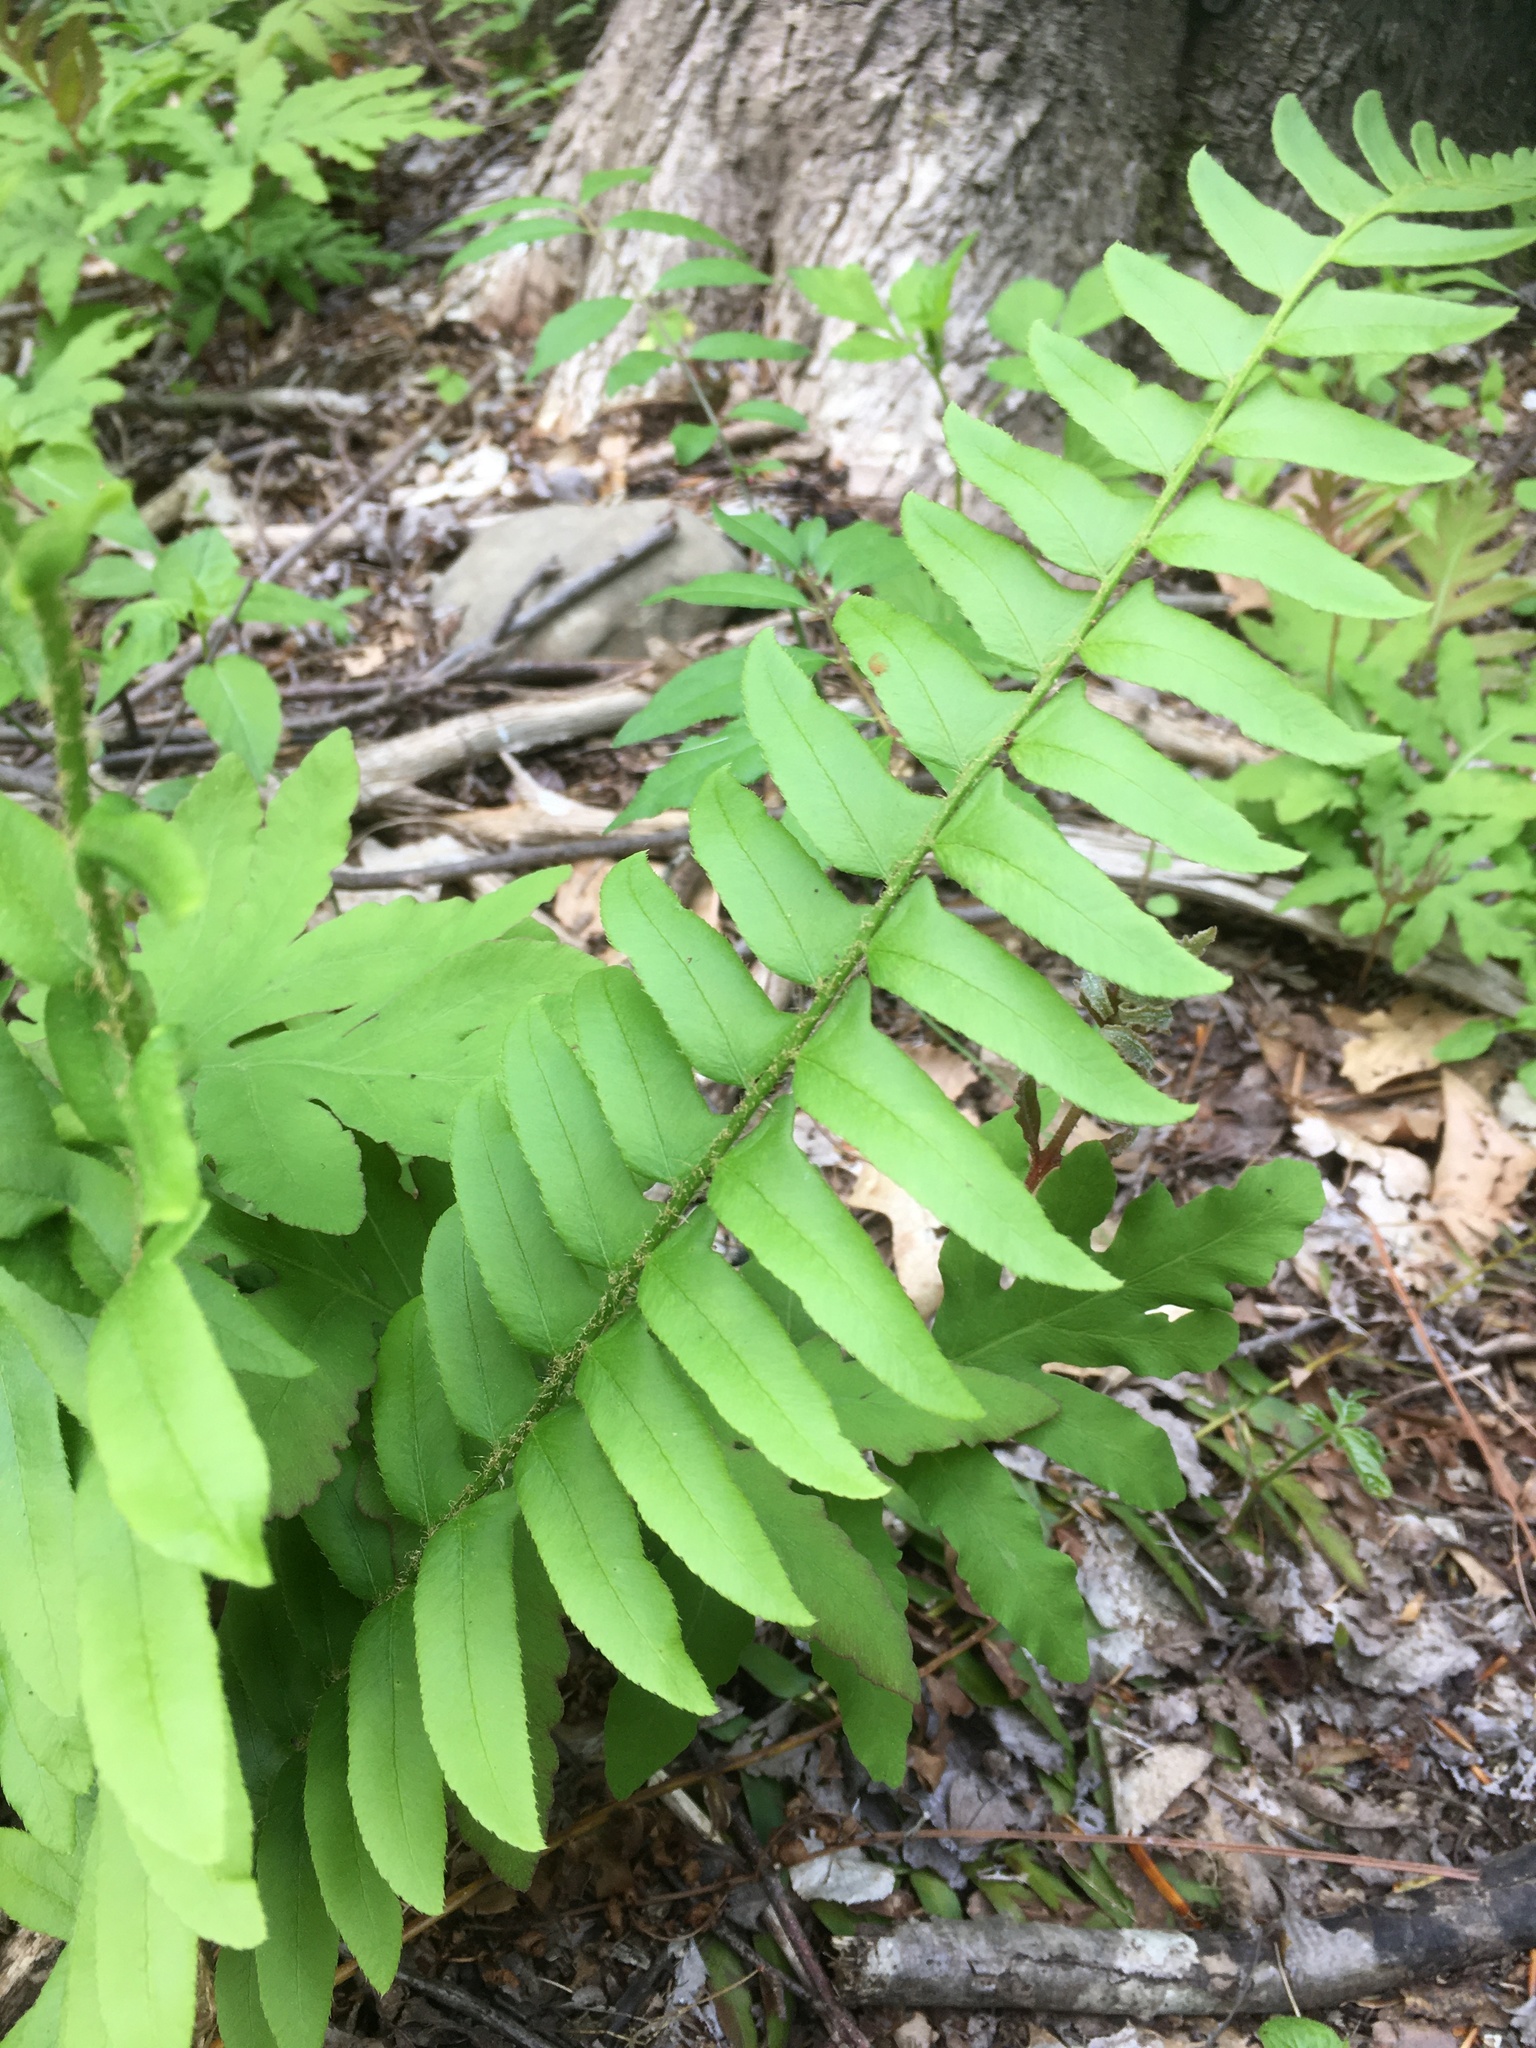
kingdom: Plantae
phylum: Tracheophyta
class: Polypodiopsida
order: Polypodiales
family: Dryopteridaceae
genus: Polystichum
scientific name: Polystichum acrostichoides
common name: Christmas fern
